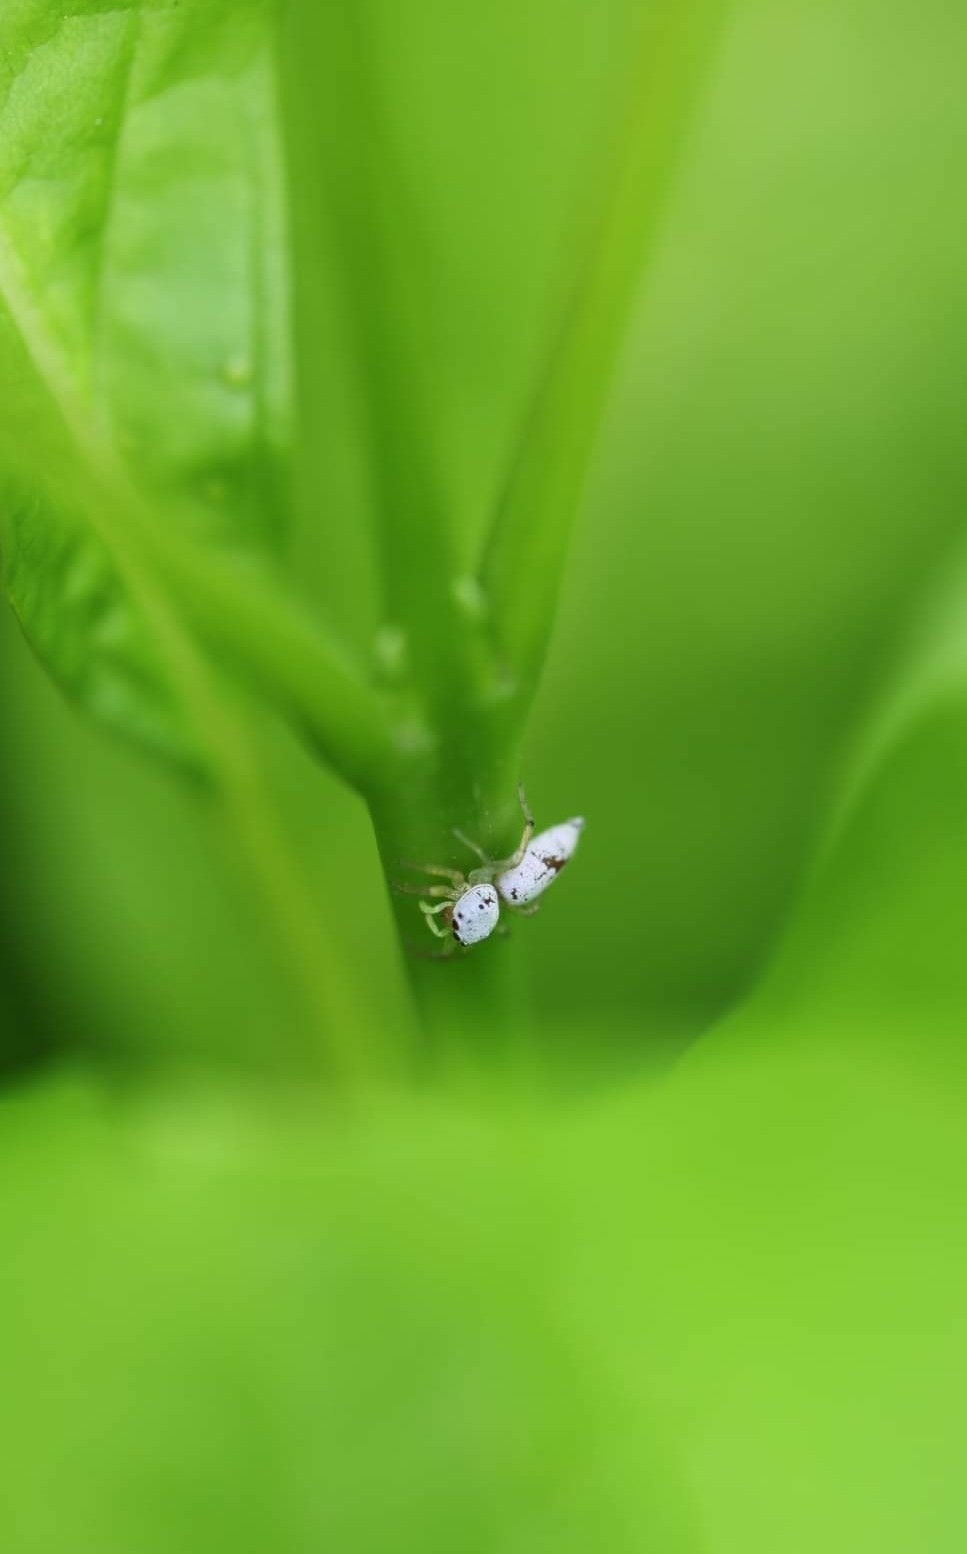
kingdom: Animalia
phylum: Arthropoda
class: Arachnida
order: Araneae
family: Salticidae
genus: Cosmophasis
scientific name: Cosmophasis lami
